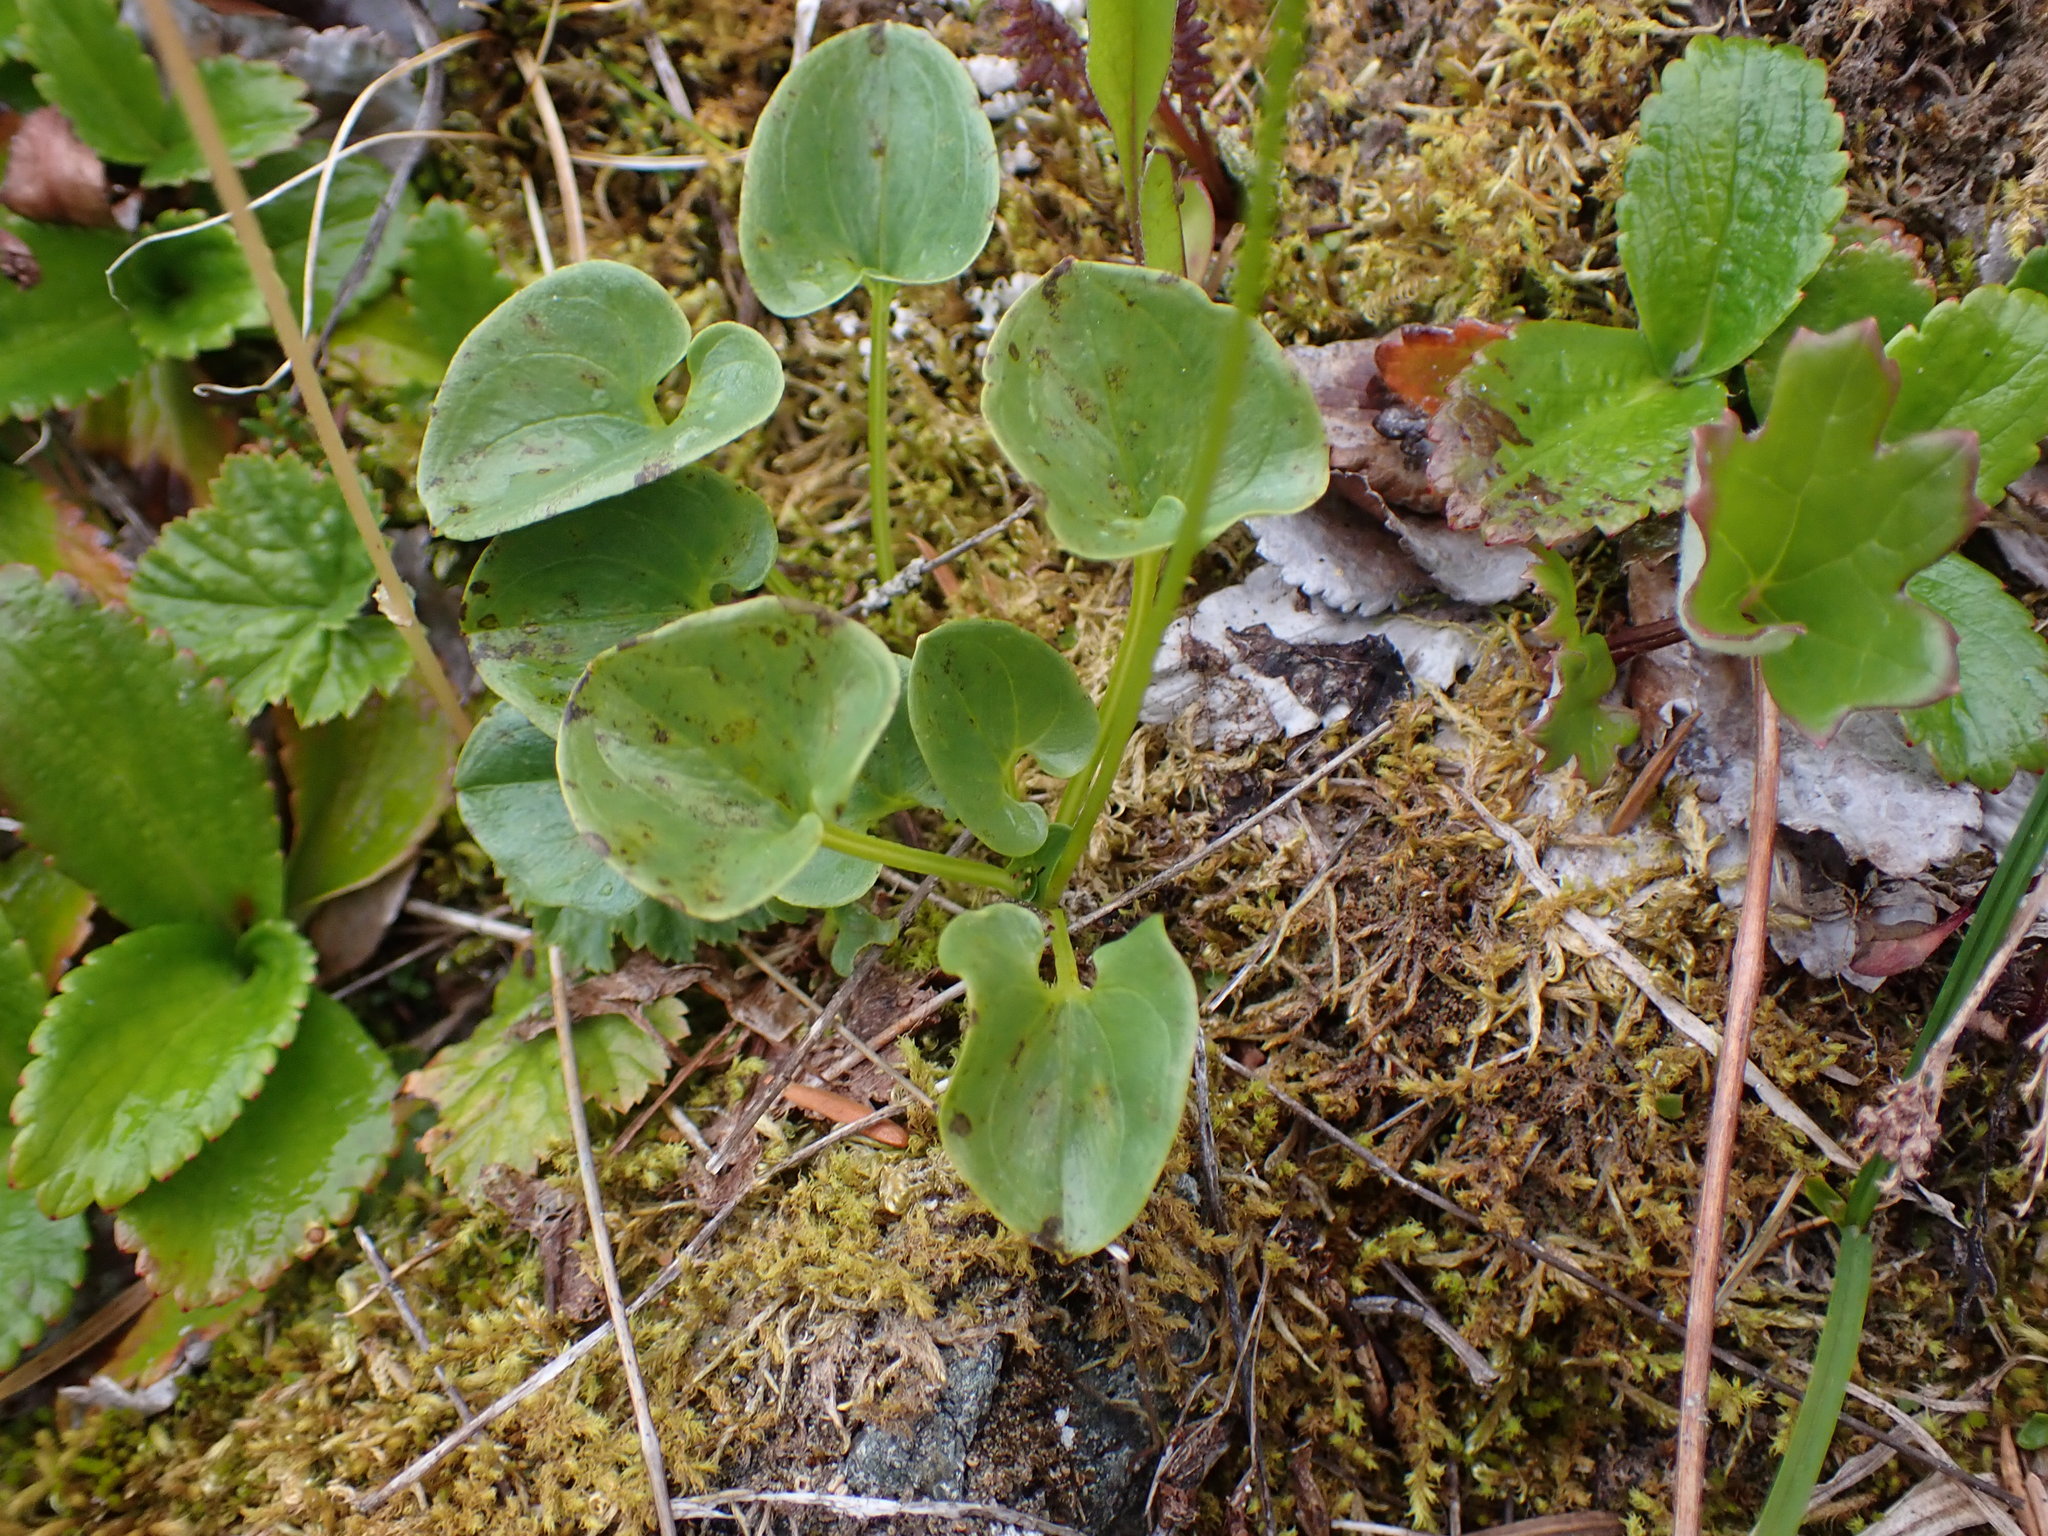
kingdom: Plantae
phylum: Tracheophyta
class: Magnoliopsida
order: Celastrales
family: Parnassiaceae
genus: Parnassia
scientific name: Parnassia fimbriata
